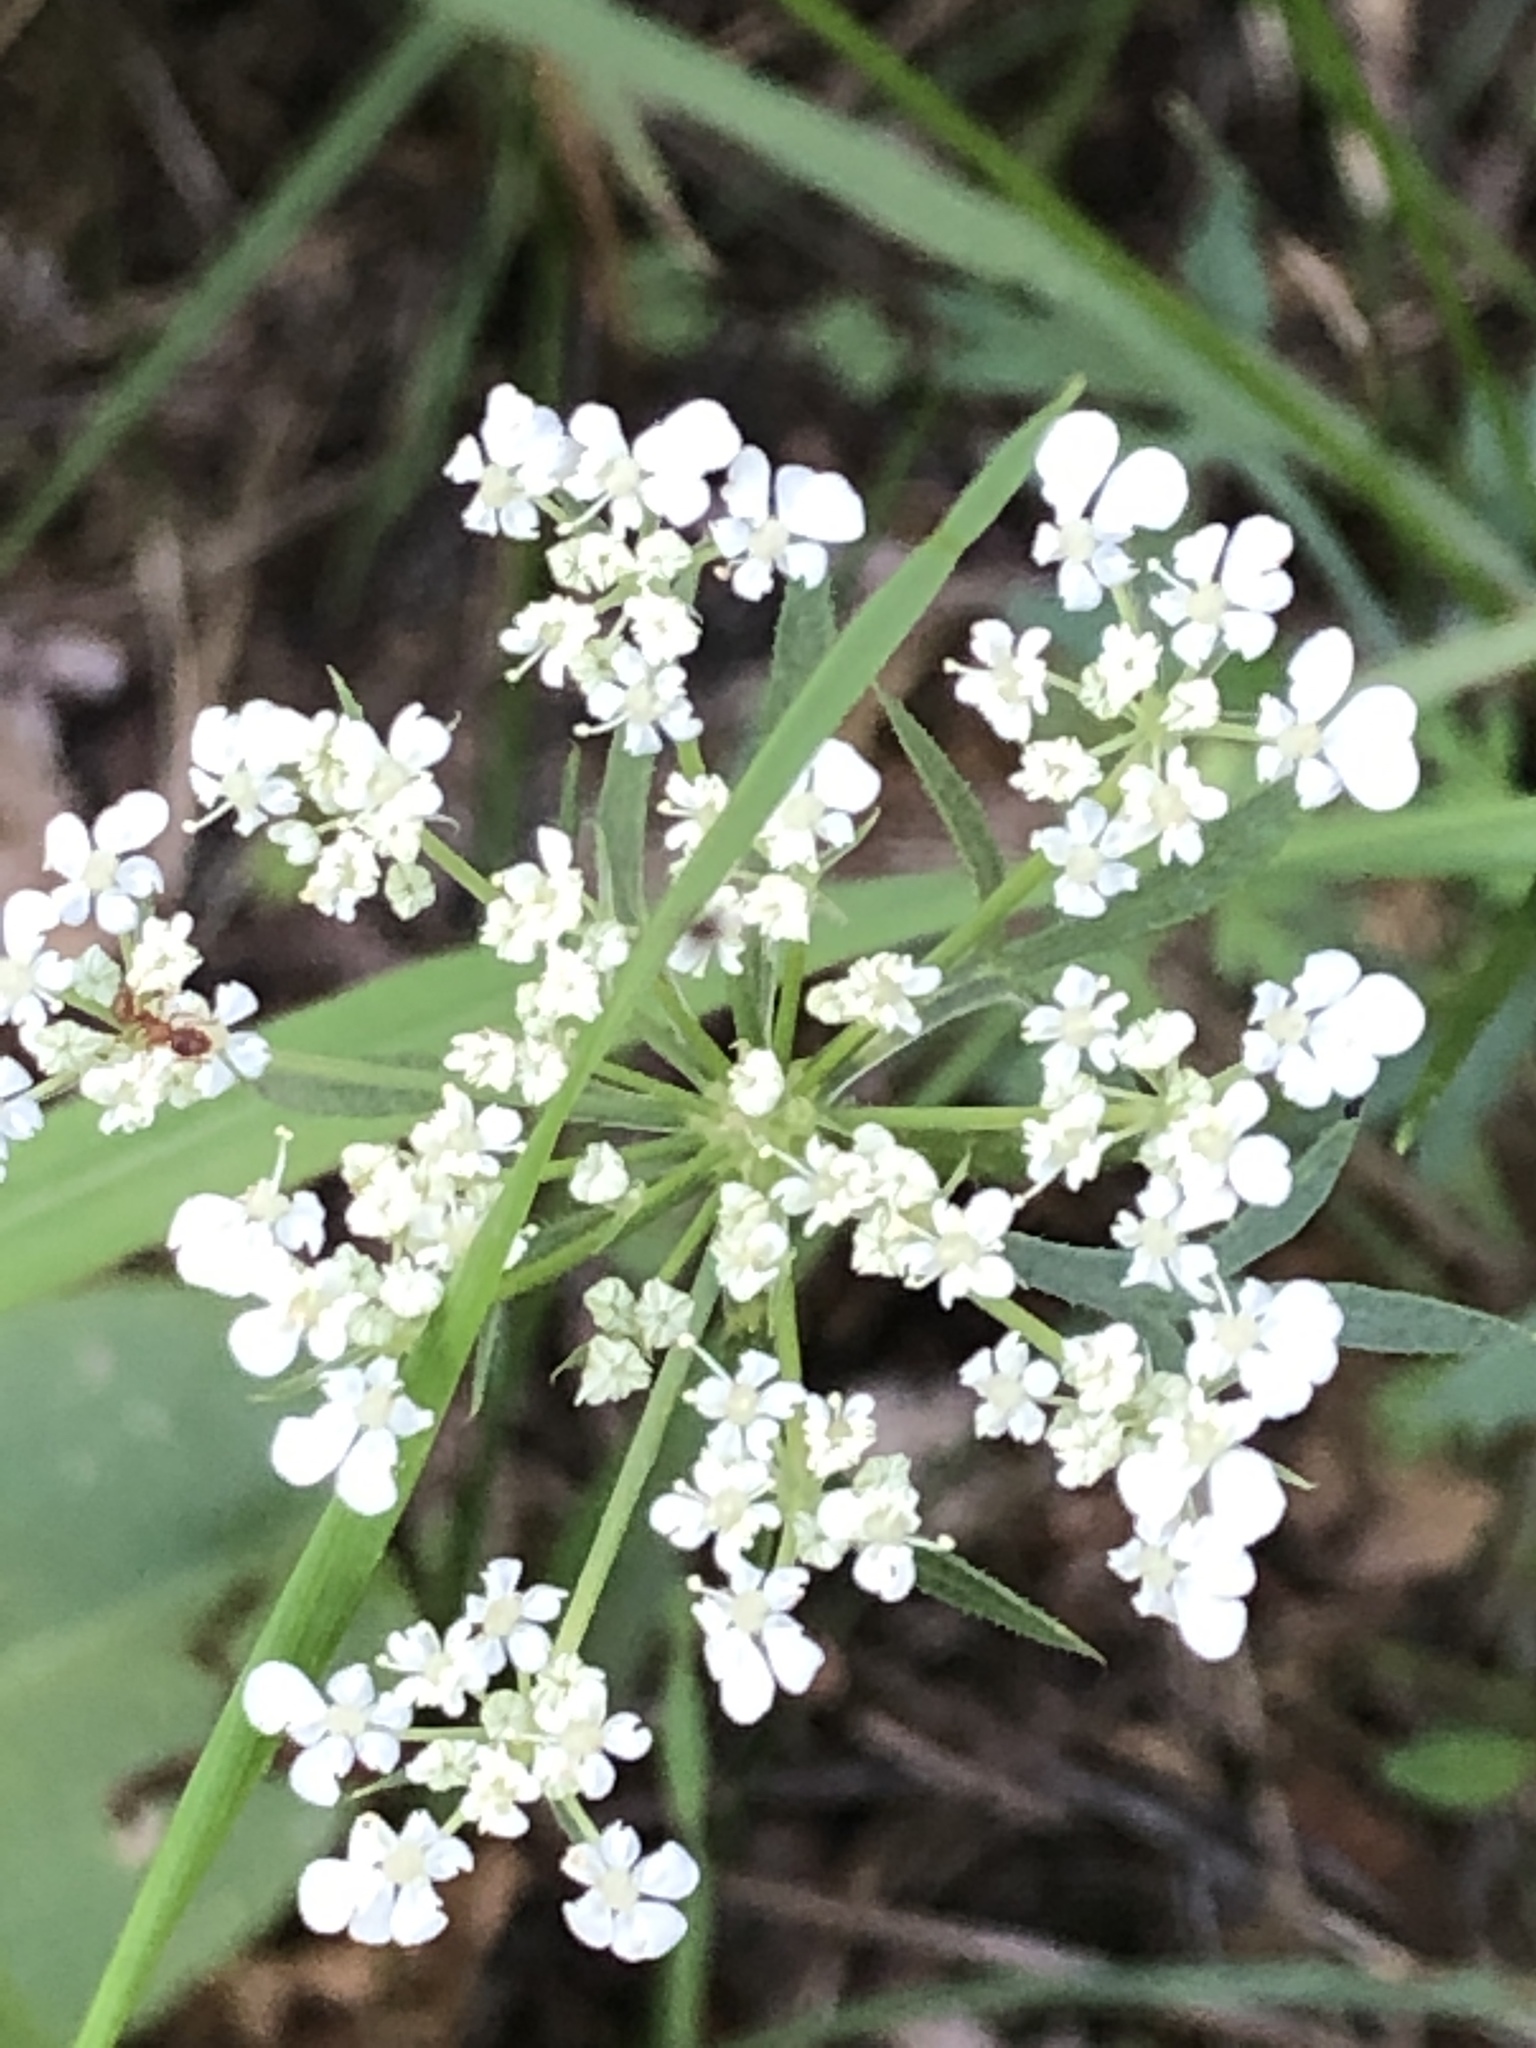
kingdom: Plantae
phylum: Tracheophyta
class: Magnoliopsida
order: Apiales
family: Apiaceae
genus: Daucus
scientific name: Daucus carota
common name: Wild carrot
